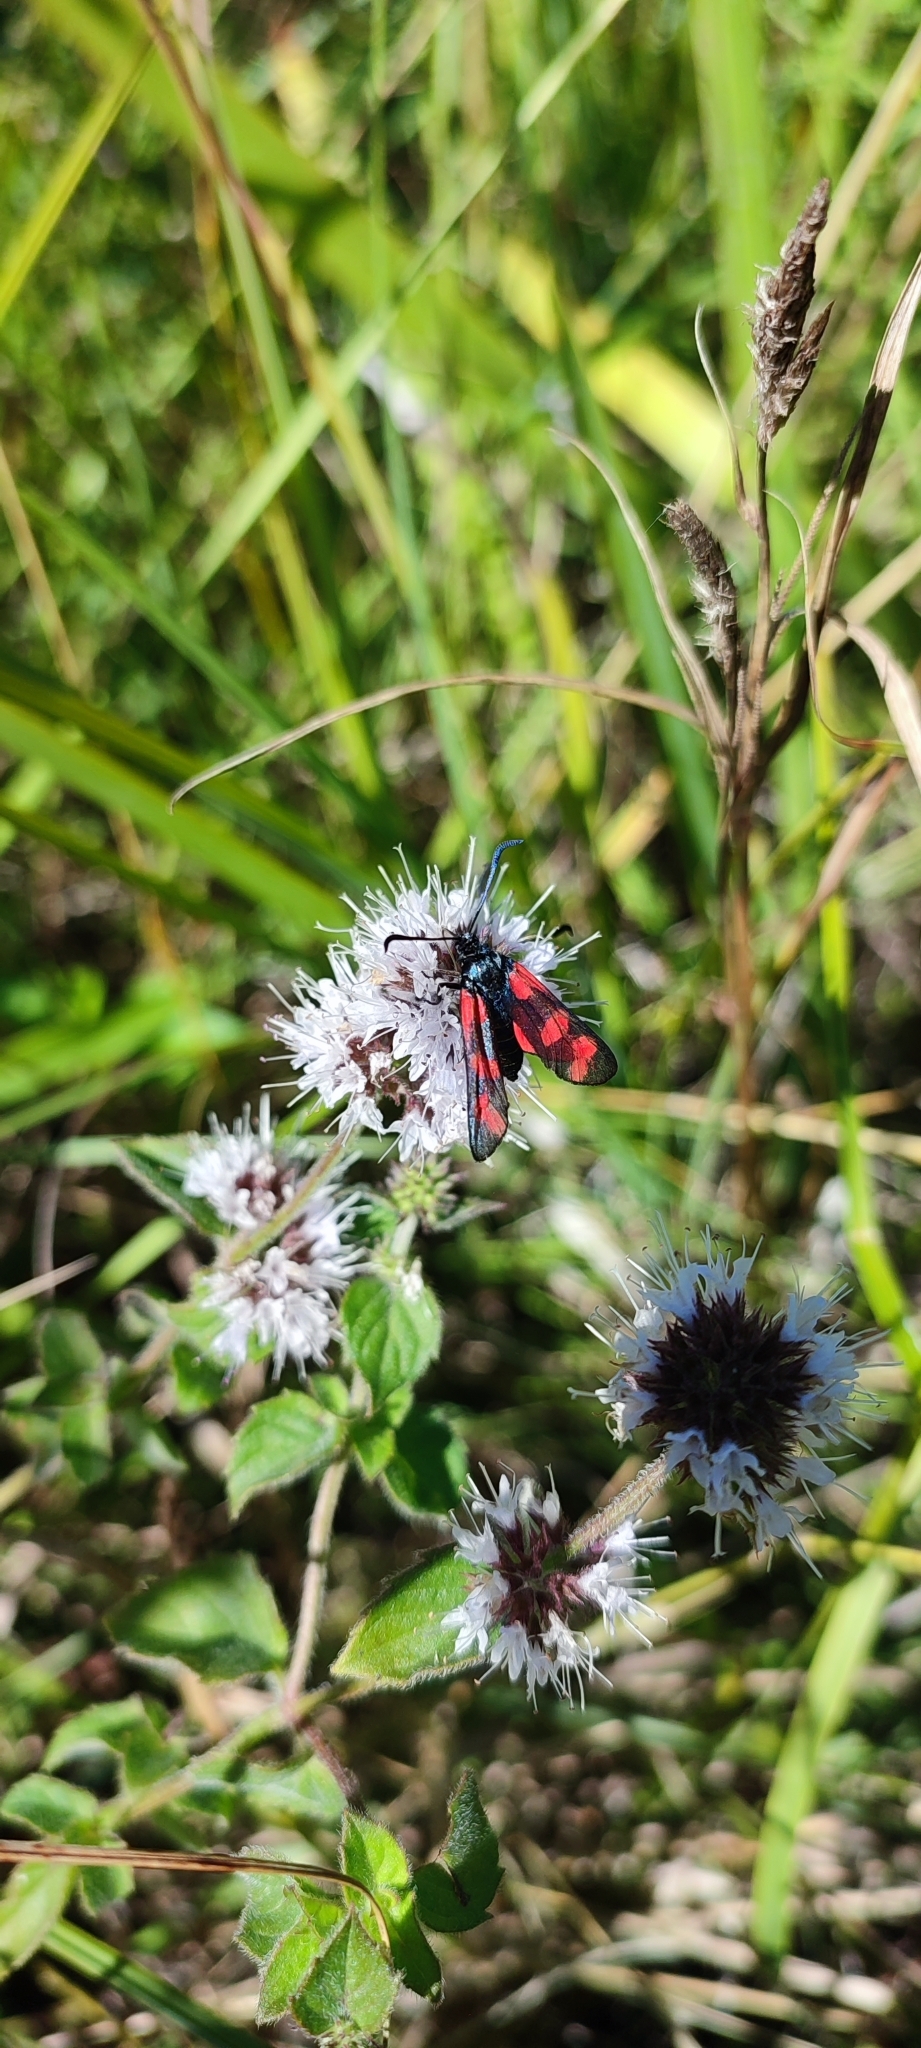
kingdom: Animalia
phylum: Arthropoda
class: Insecta
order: Lepidoptera
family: Zygaenidae
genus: Zygaena
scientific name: Zygaena filipendulae
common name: Six-spot burnet
